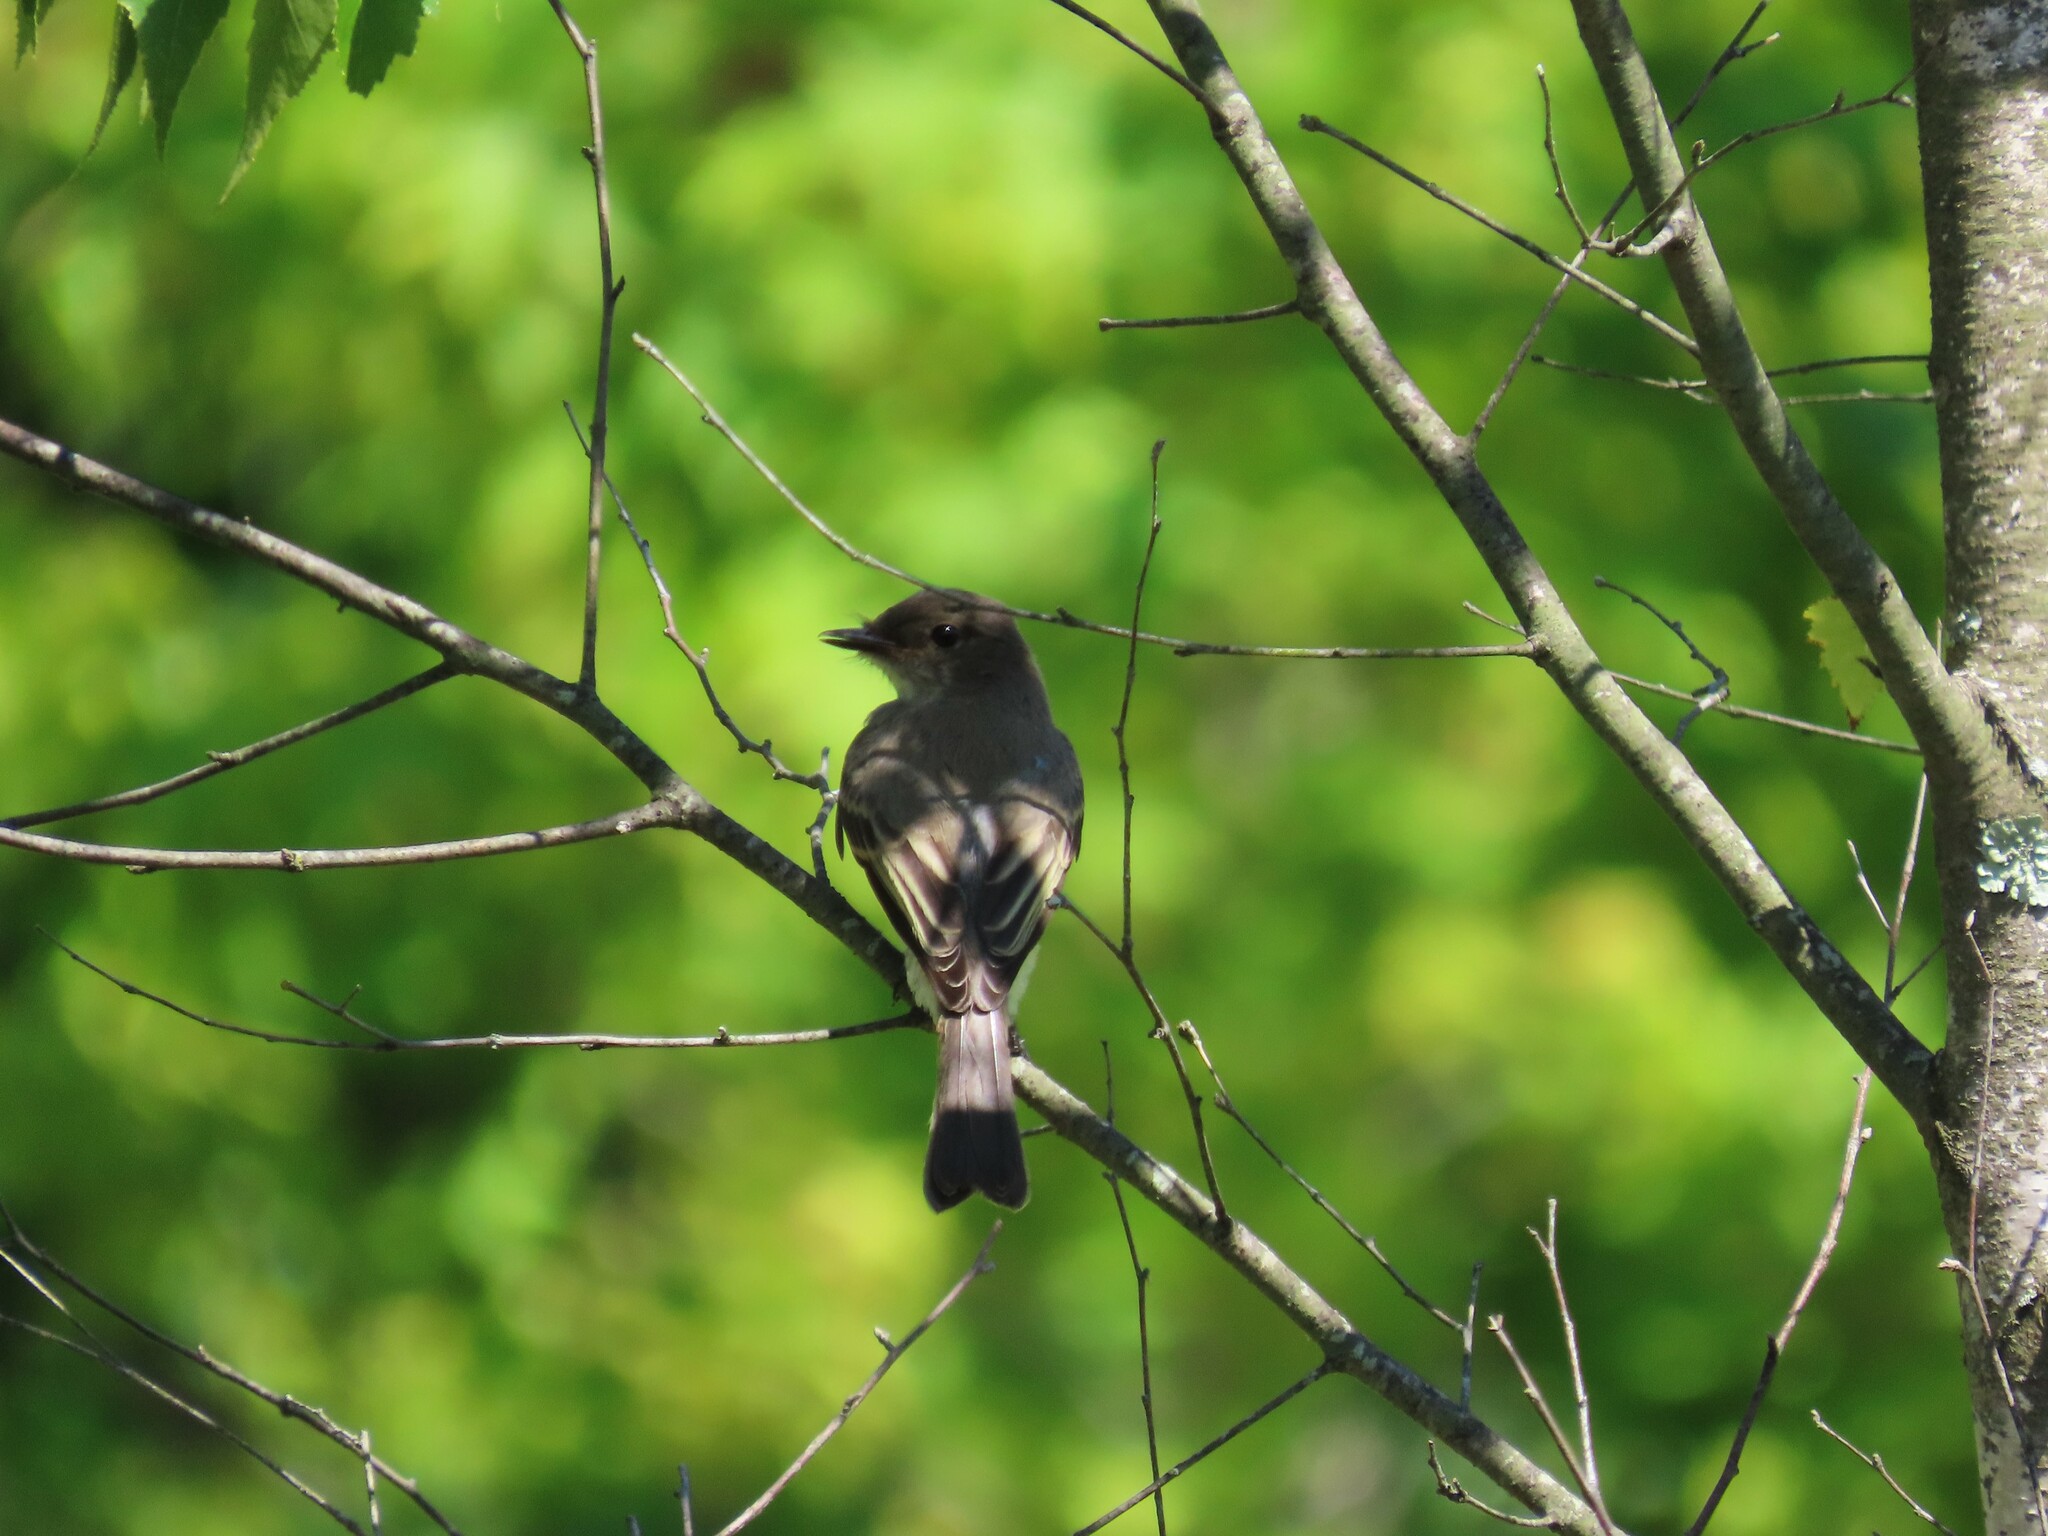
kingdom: Animalia
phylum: Chordata
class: Aves
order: Passeriformes
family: Tyrannidae
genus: Sayornis
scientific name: Sayornis phoebe
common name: Eastern phoebe
